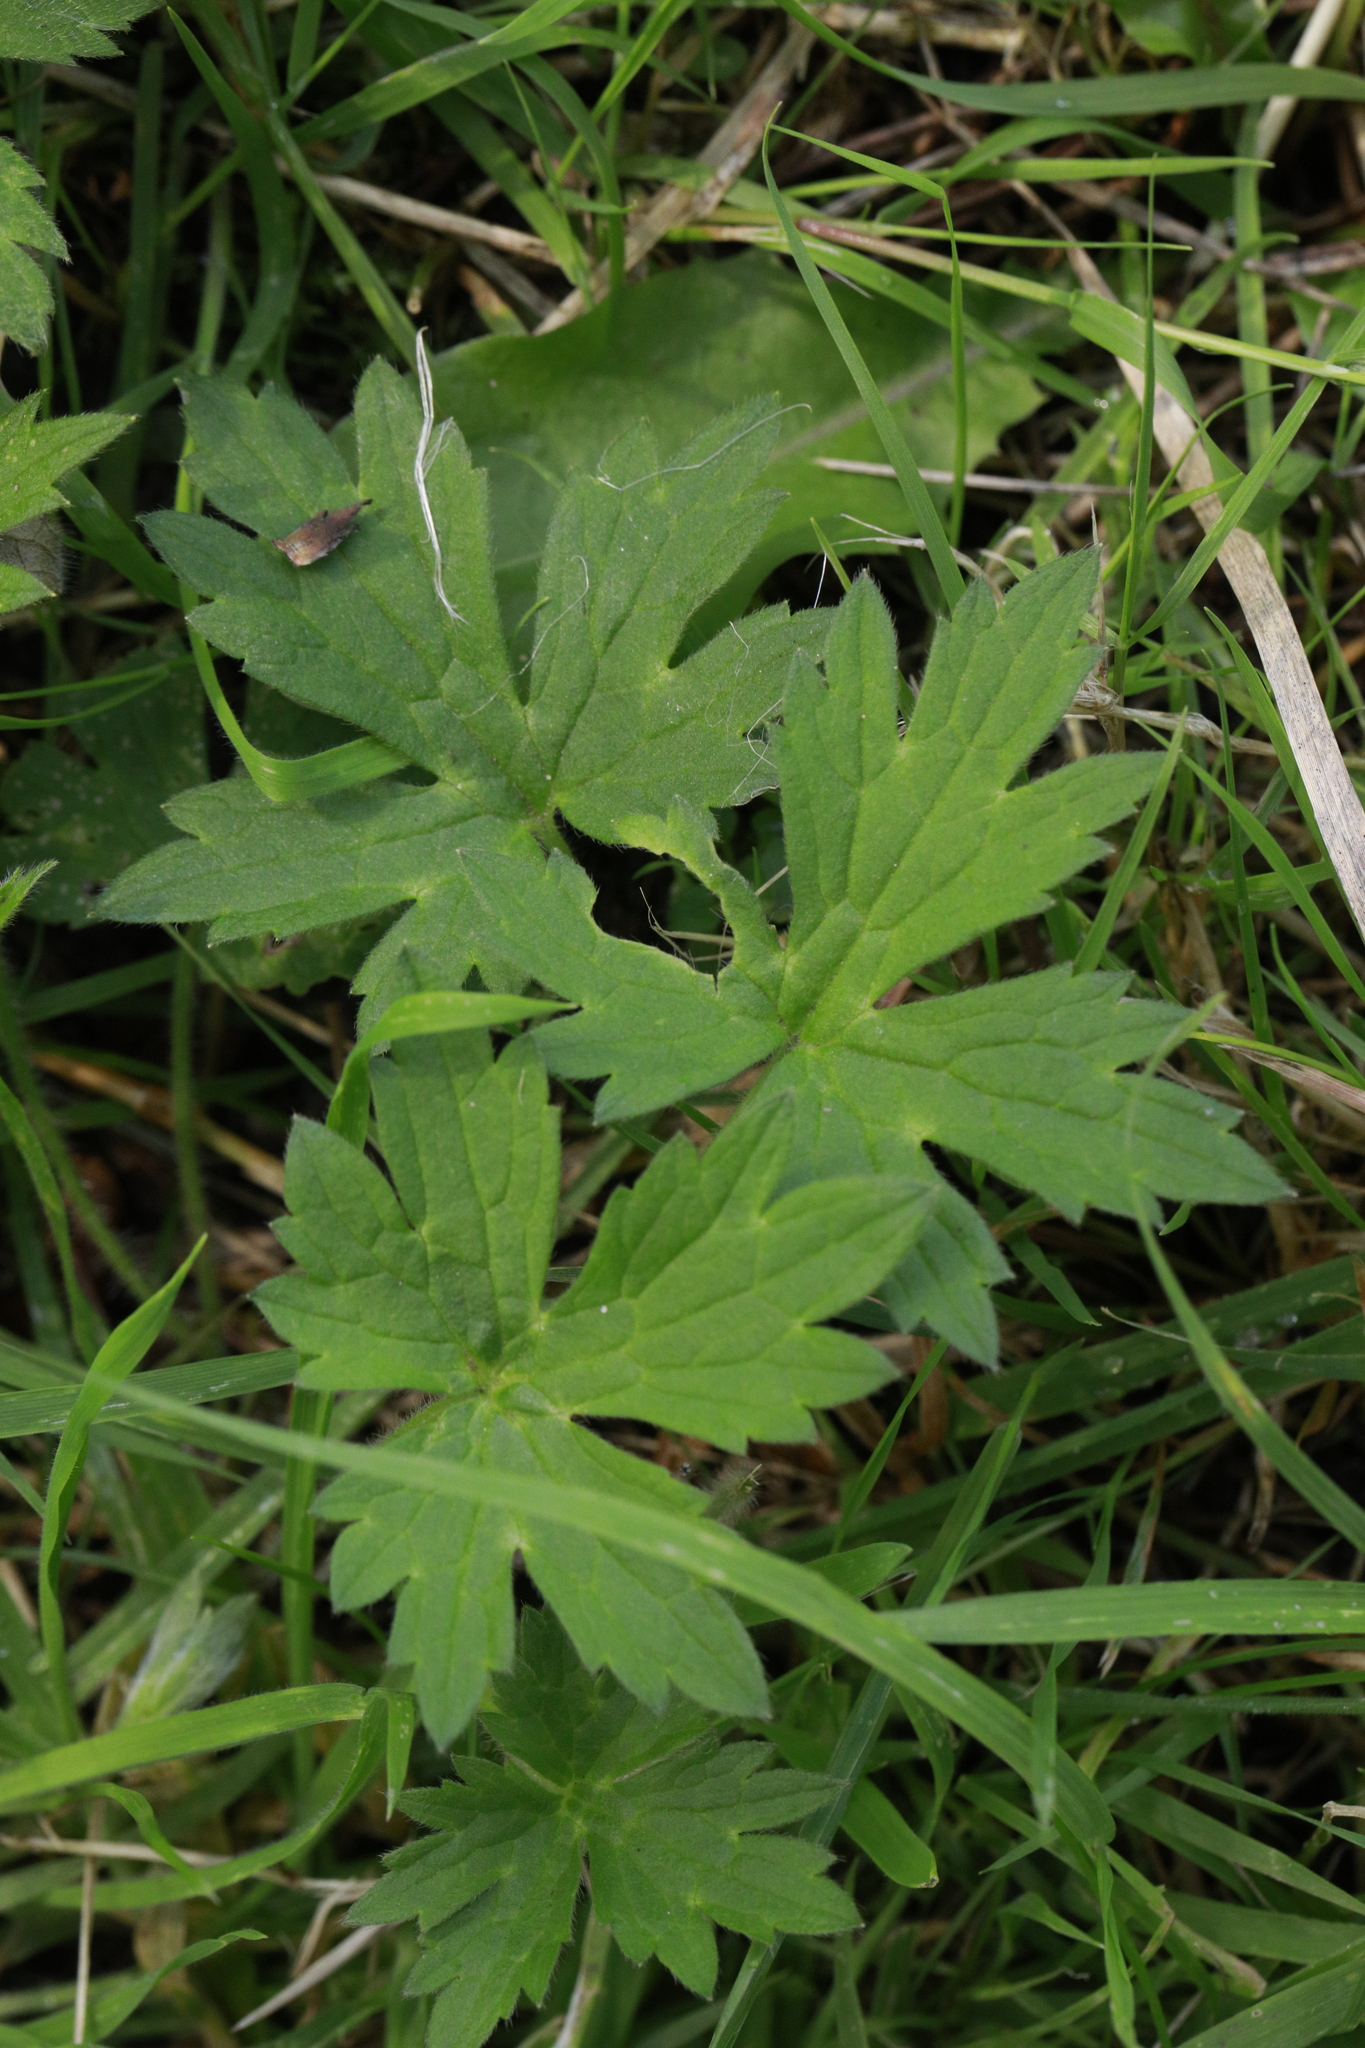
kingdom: Plantae
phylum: Tracheophyta
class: Magnoliopsida
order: Ranunculales
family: Ranunculaceae
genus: Ranunculus
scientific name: Ranunculus repens
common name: Creeping buttercup
